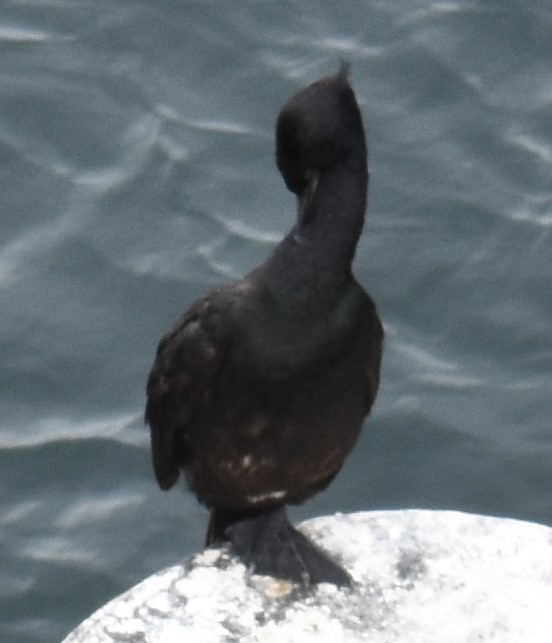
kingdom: Animalia
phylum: Chordata
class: Aves
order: Suliformes
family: Phalacrocoracidae
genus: Phalacrocorax
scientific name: Phalacrocorax pelagicus
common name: Pelagic cormorant
